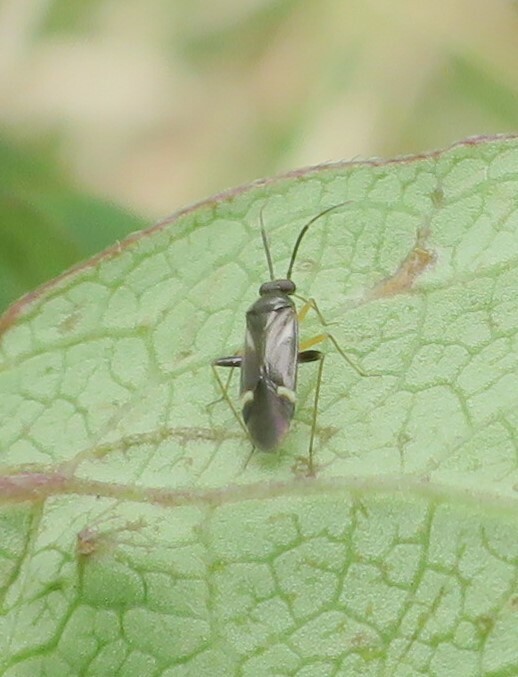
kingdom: Animalia
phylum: Arthropoda
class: Insecta
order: Hemiptera
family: Miridae
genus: Ausejanus
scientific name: Ausejanus albisignatus
